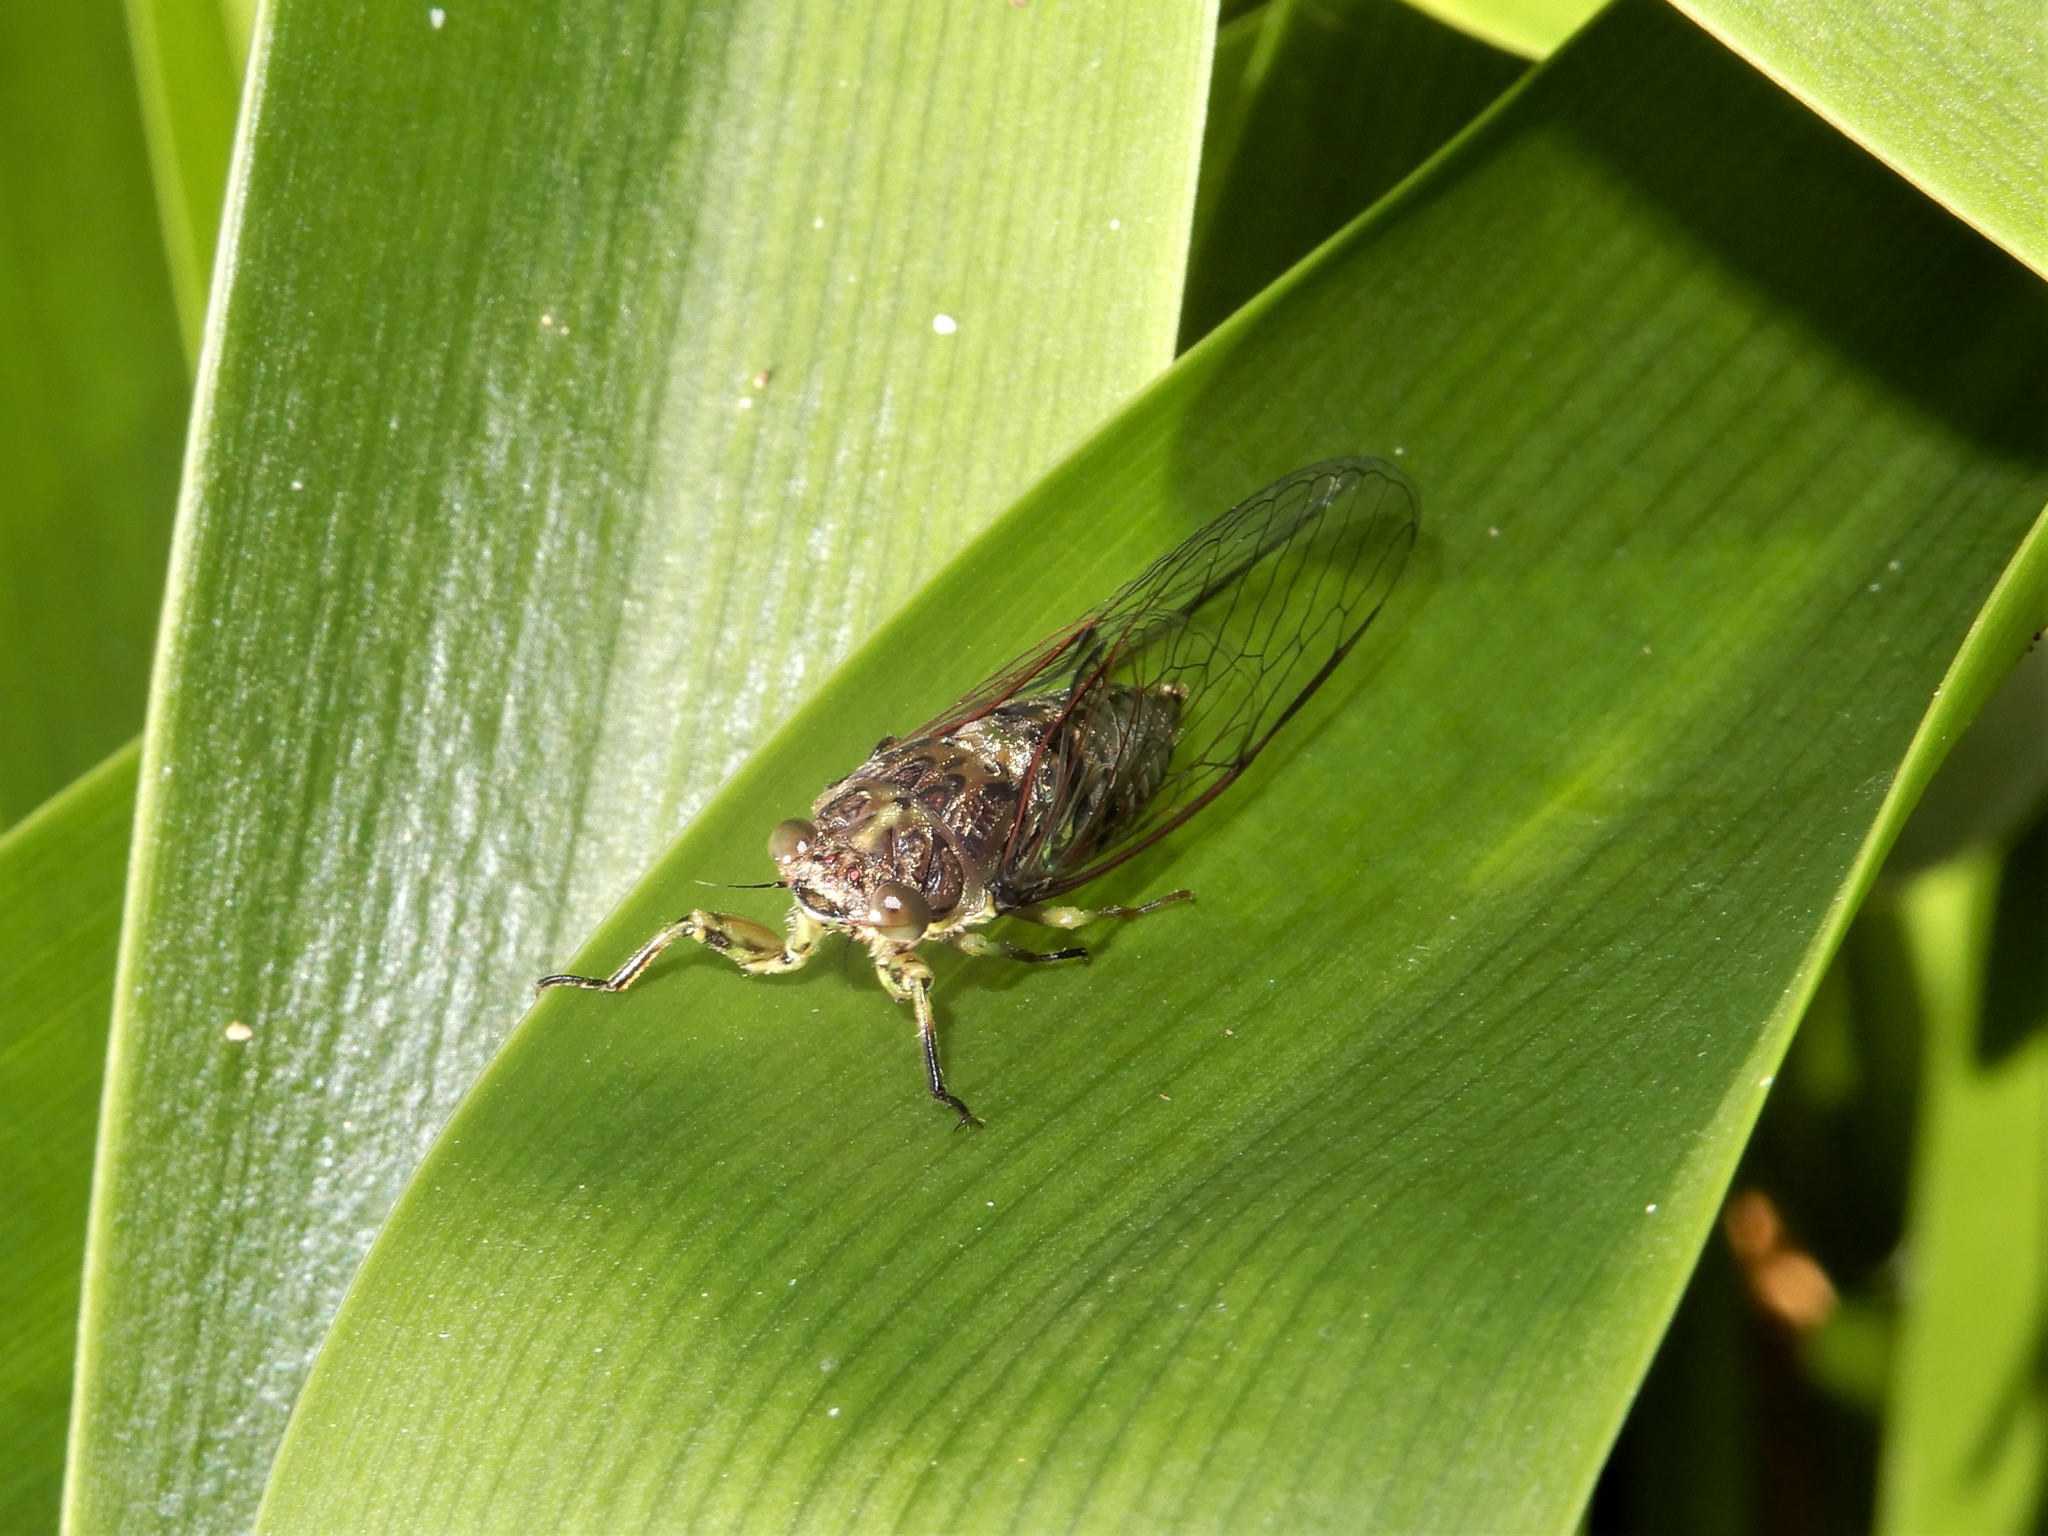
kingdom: Animalia
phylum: Arthropoda
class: Insecta
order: Hemiptera
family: Cicadidae
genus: Kikihia
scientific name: Kikihia scutellaris
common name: Lesser bronze cicada
